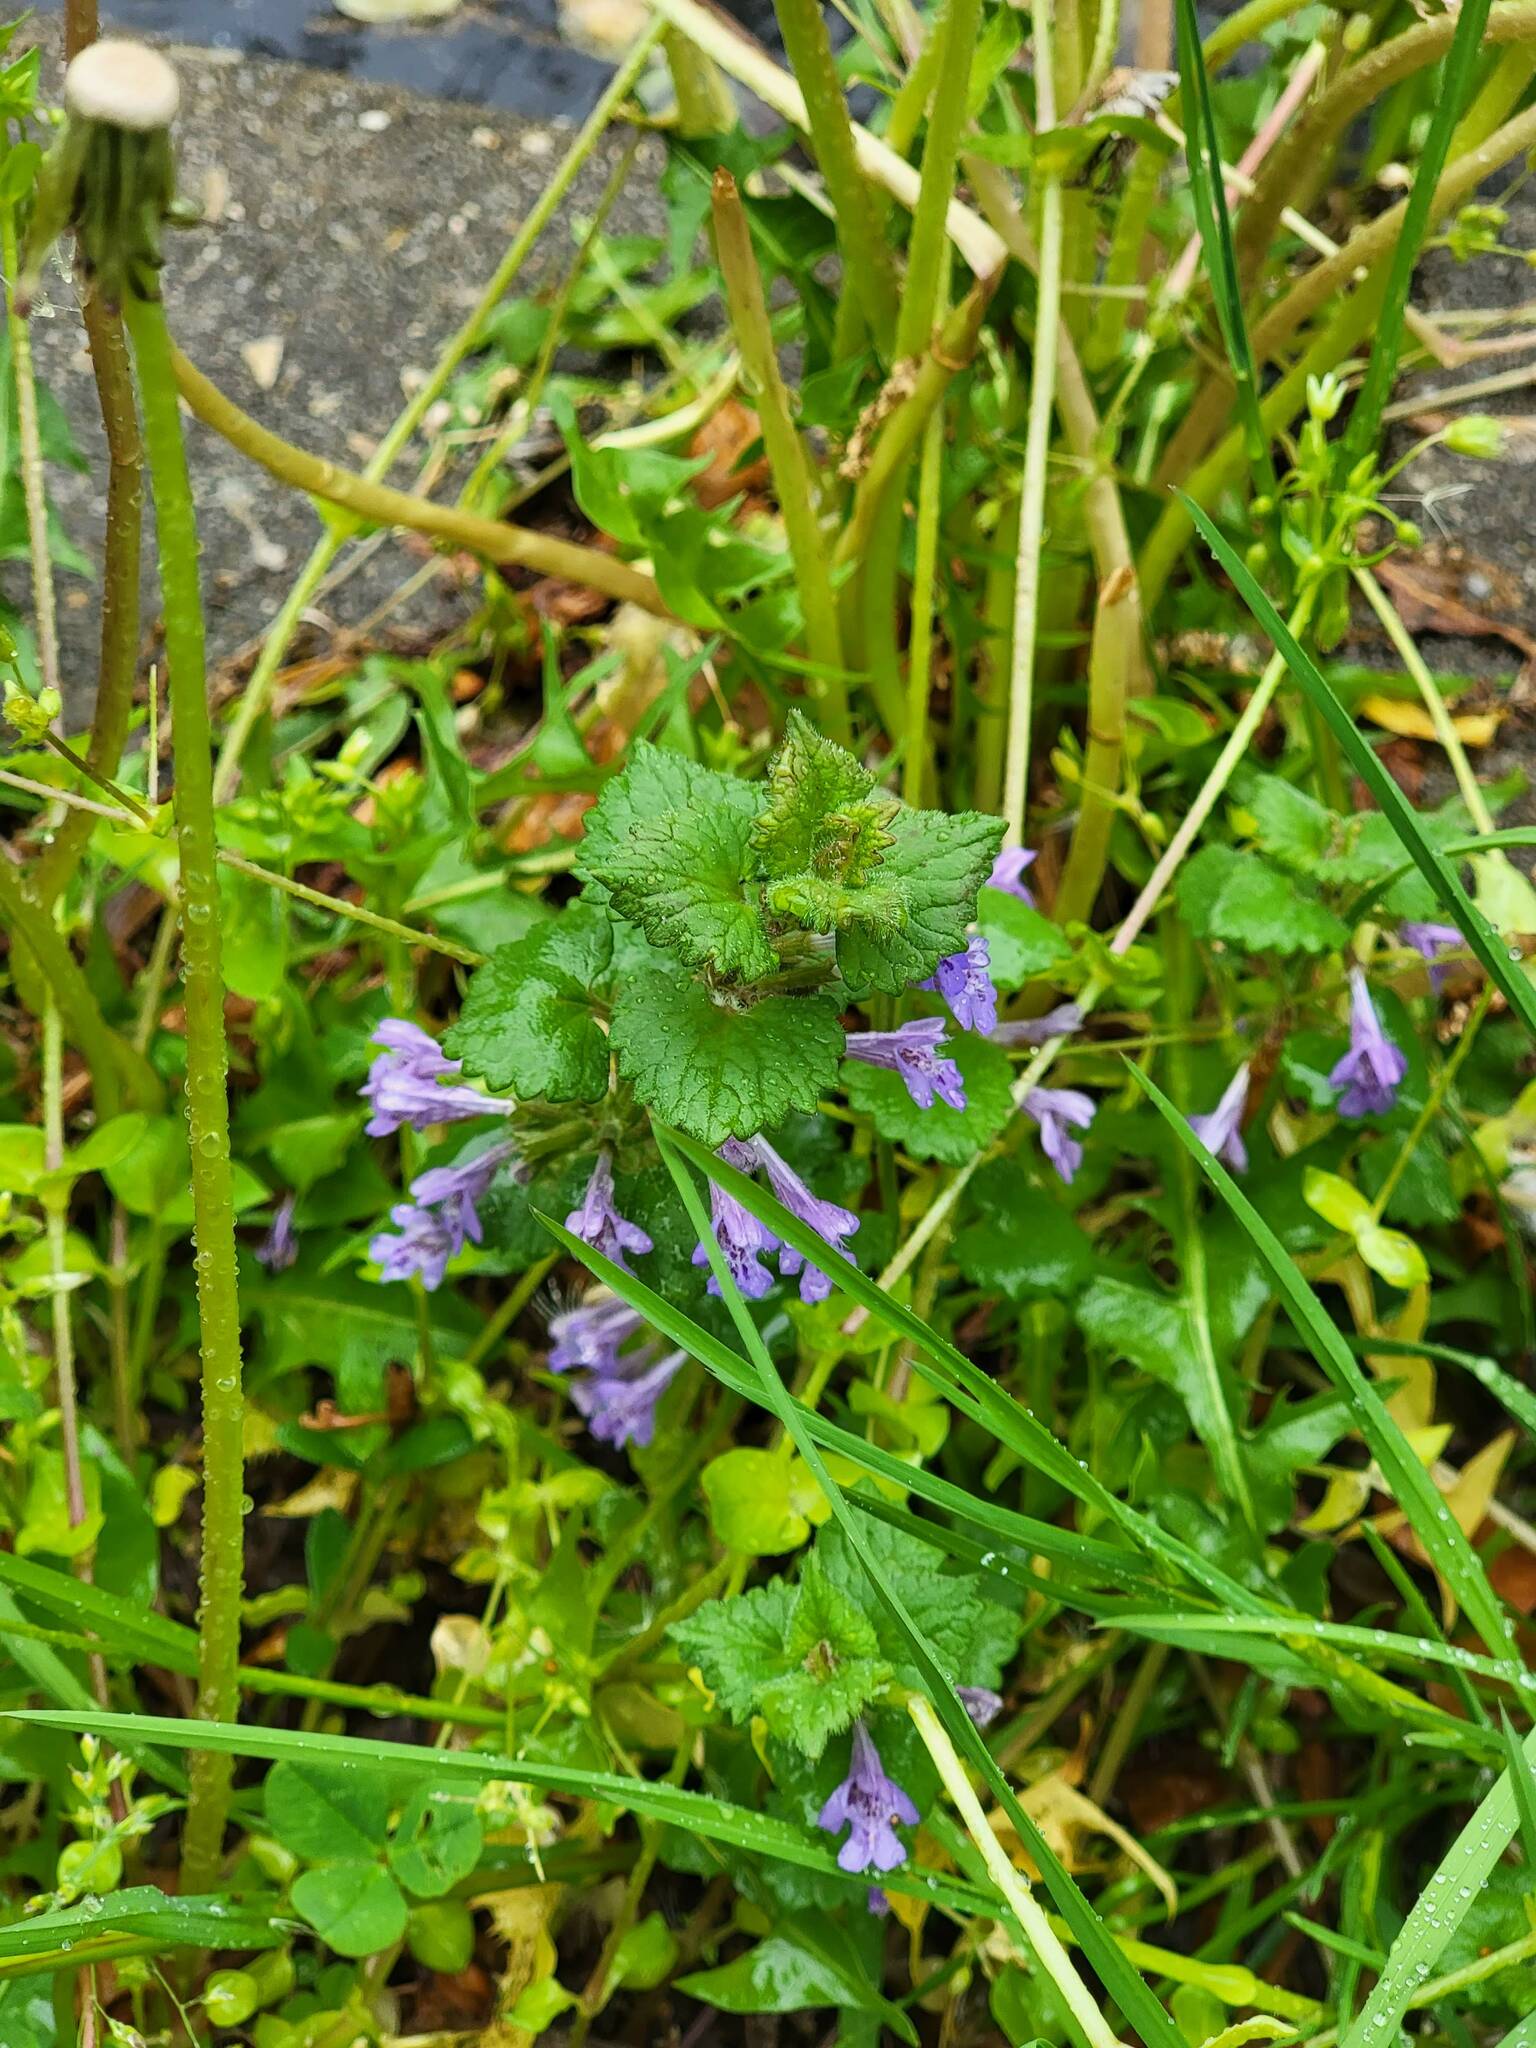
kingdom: Plantae
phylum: Tracheophyta
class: Magnoliopsida
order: Lamiales
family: Lamiaceae
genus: Glechoma
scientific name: Glechoma hederacea
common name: Ground ivy
